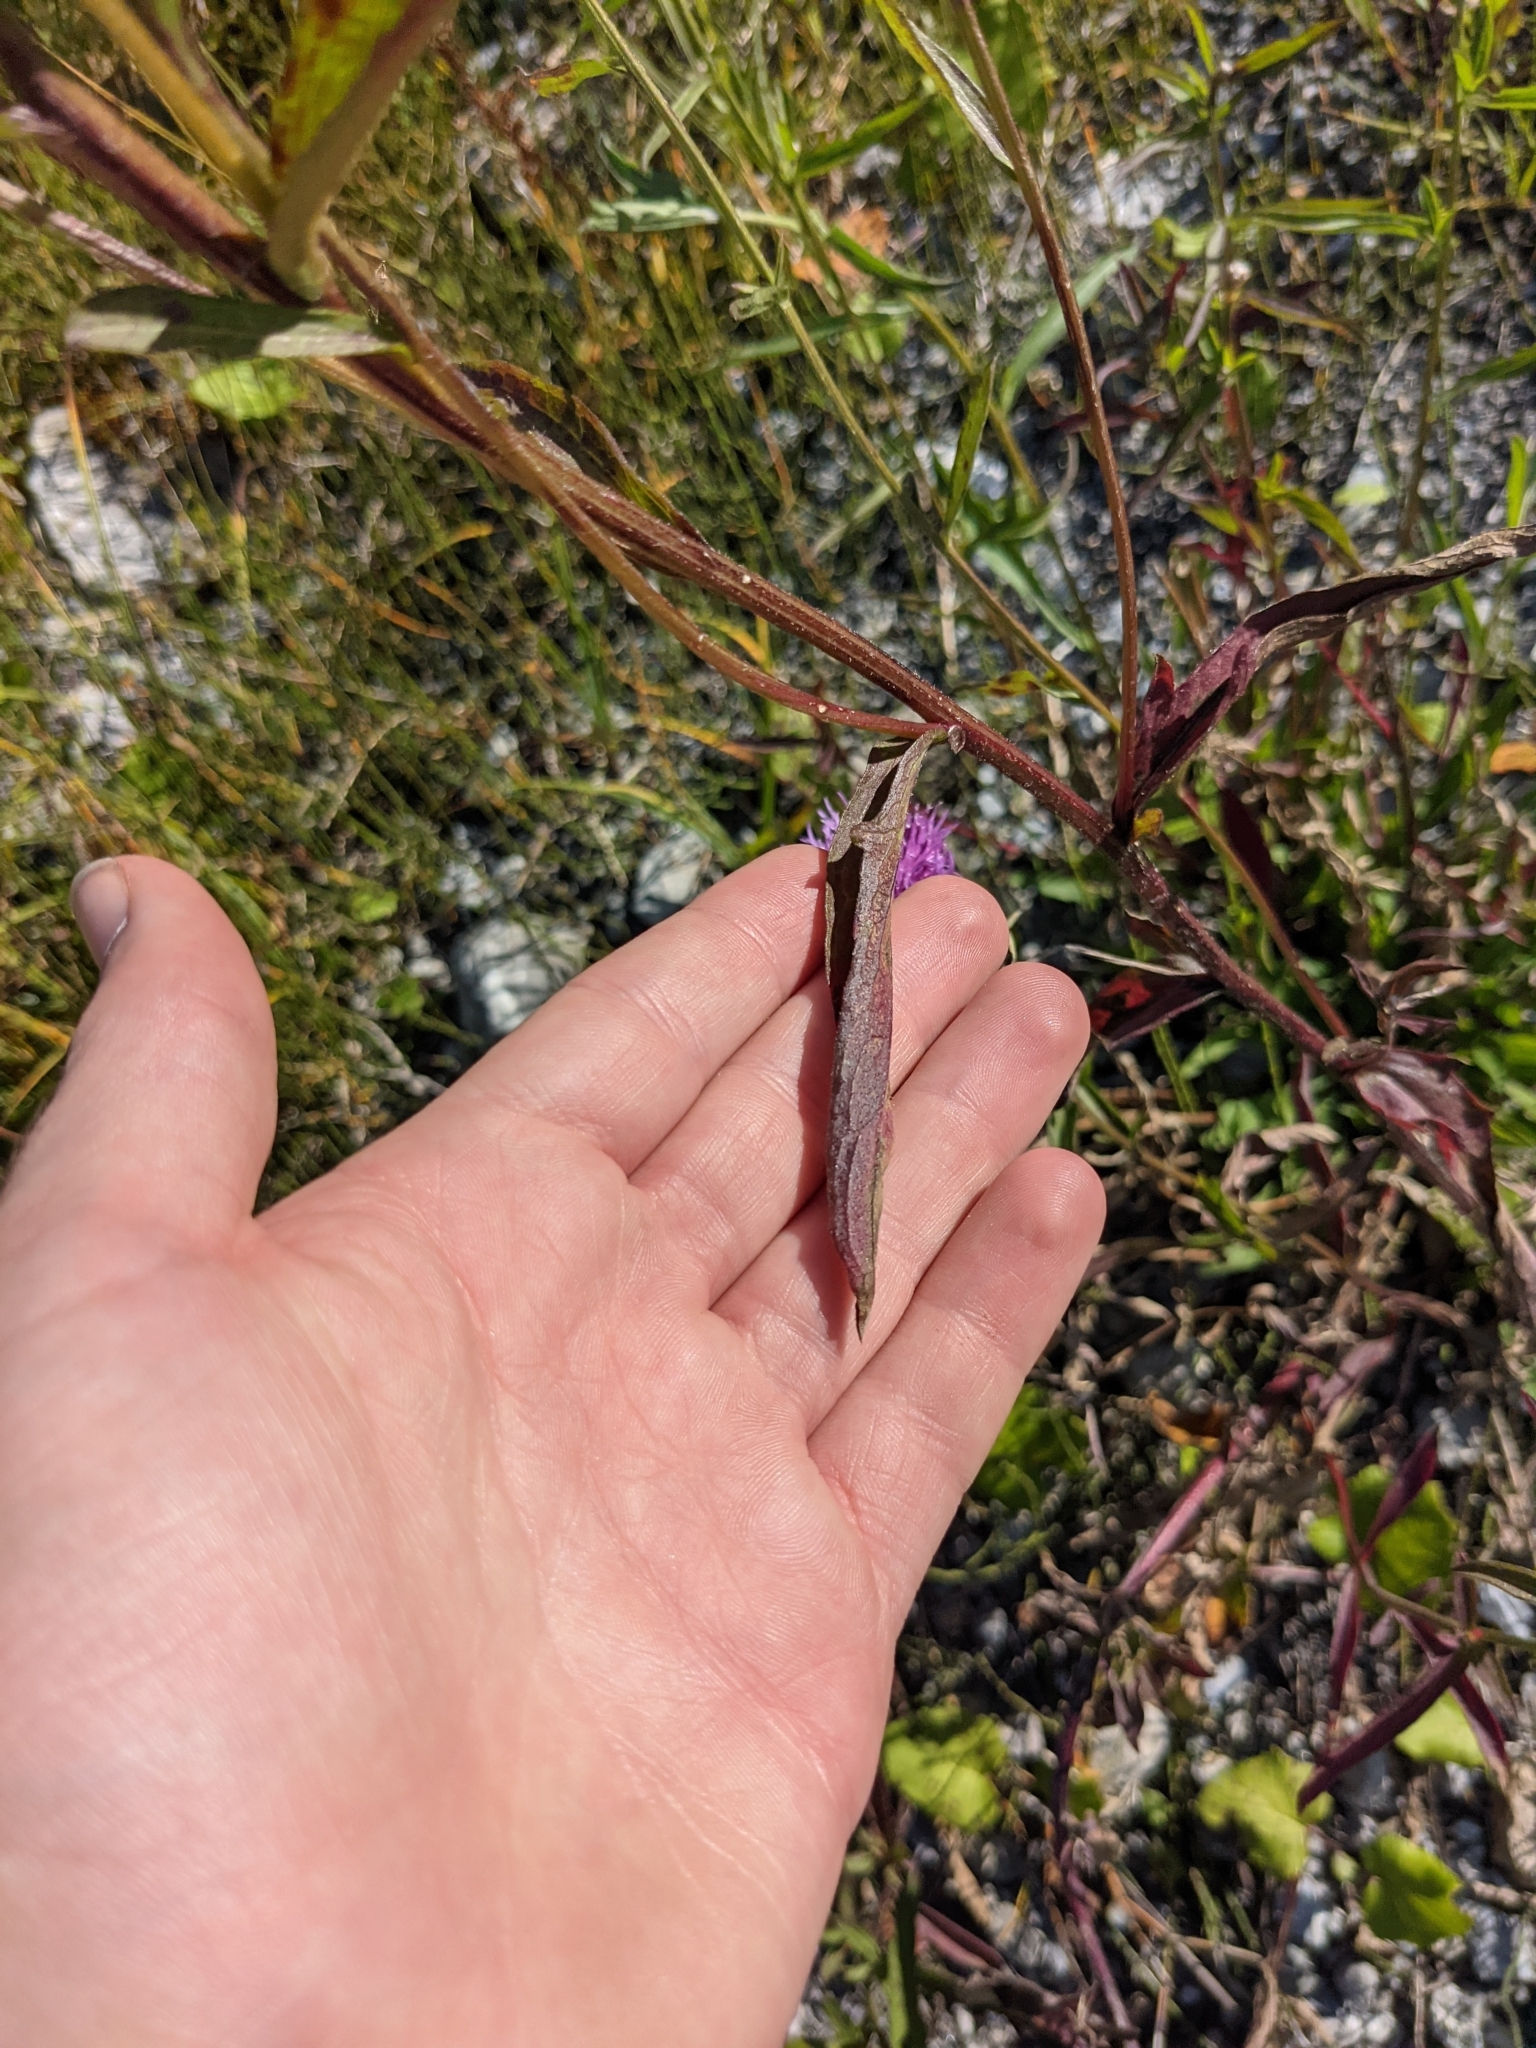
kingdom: Plantae
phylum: Tracheophyta
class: Magnoliopsida
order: Asterales
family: Asteraceae
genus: Centaurea
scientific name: Centaurea jacea
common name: Brown knapweed
